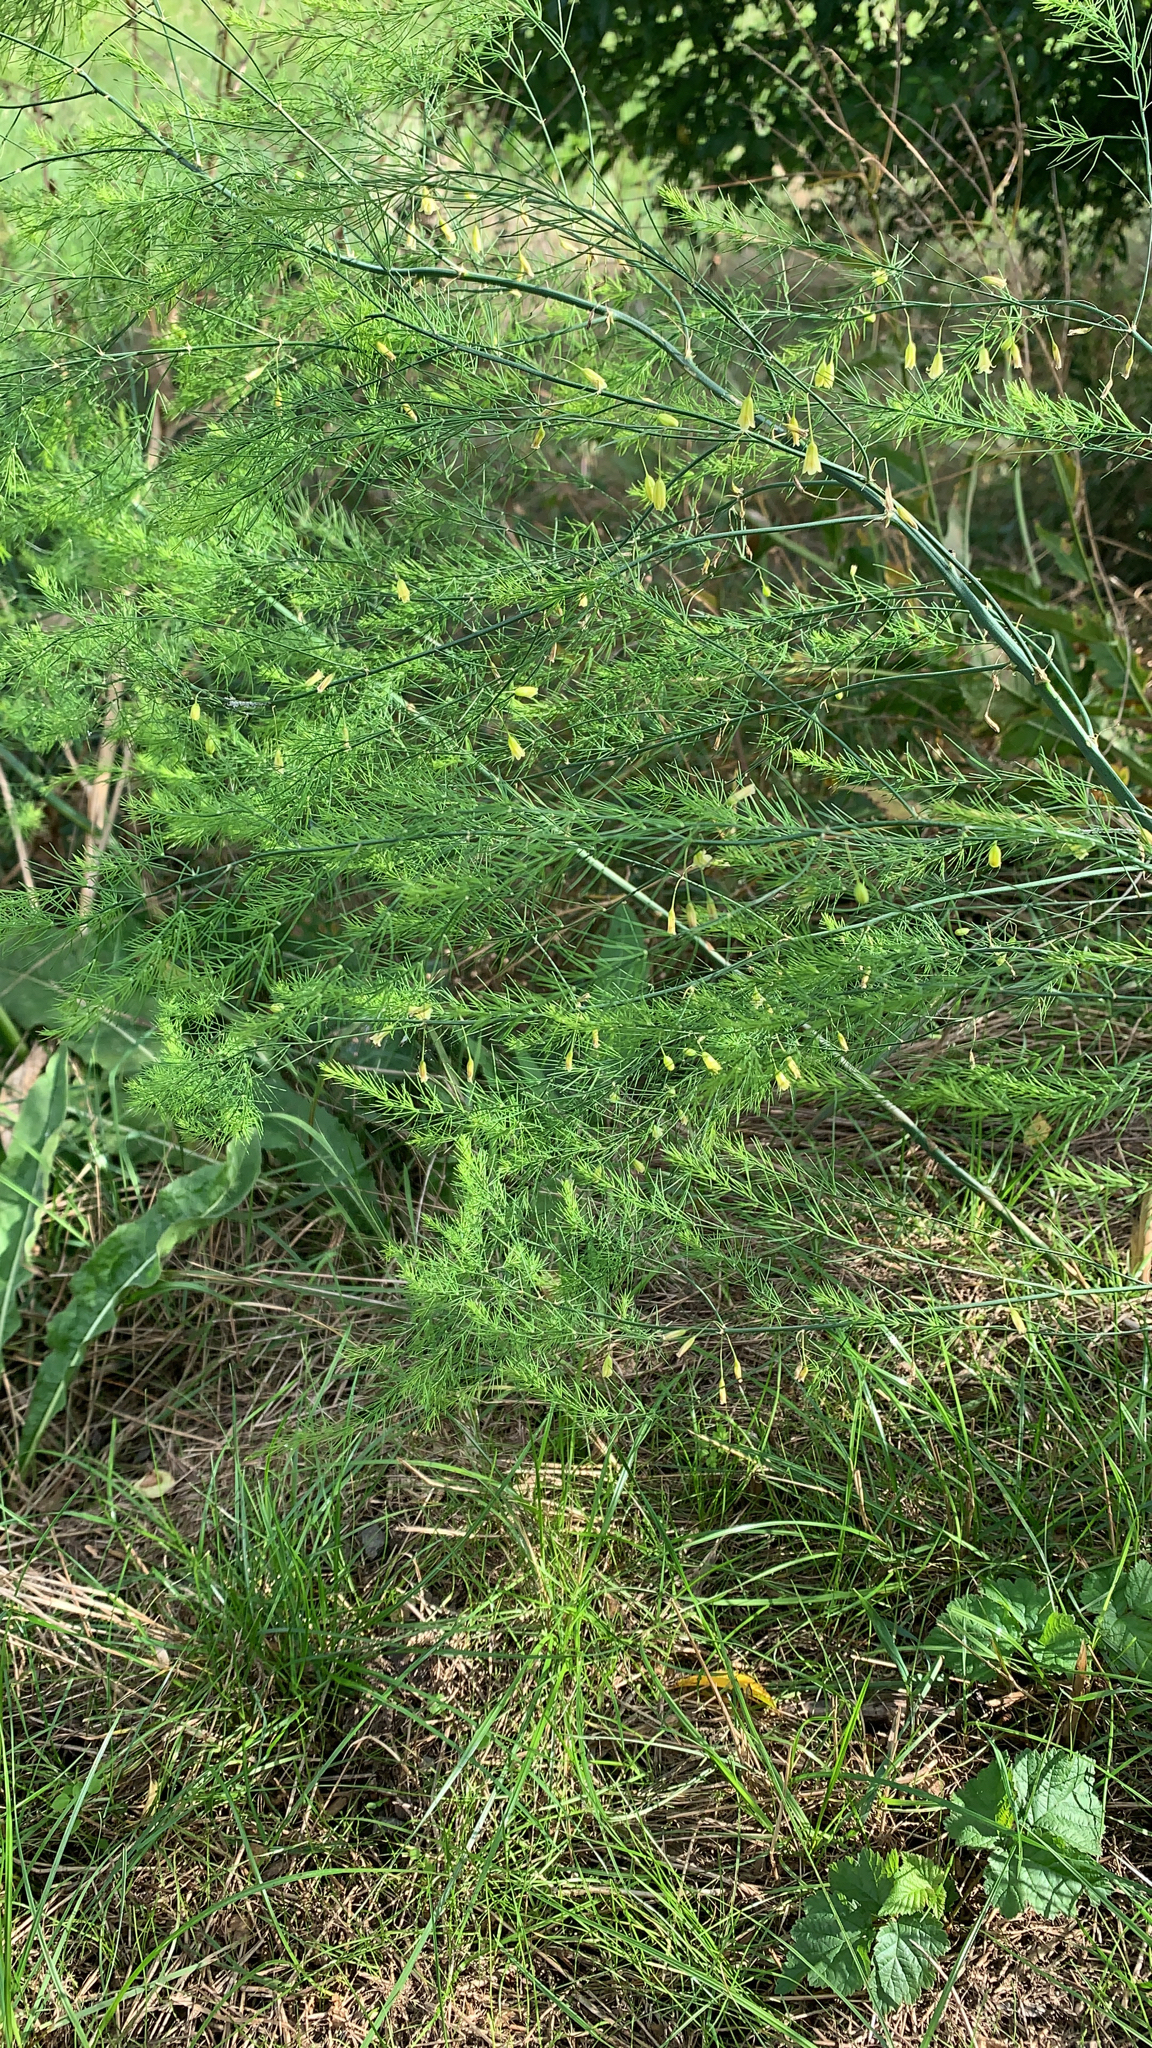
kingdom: Plantae
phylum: Tracheophyta
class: Liliopsida
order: Asparagales
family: Asparagaceae
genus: Asparagus
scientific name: Asparagus officinalis
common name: Garden asparagus
